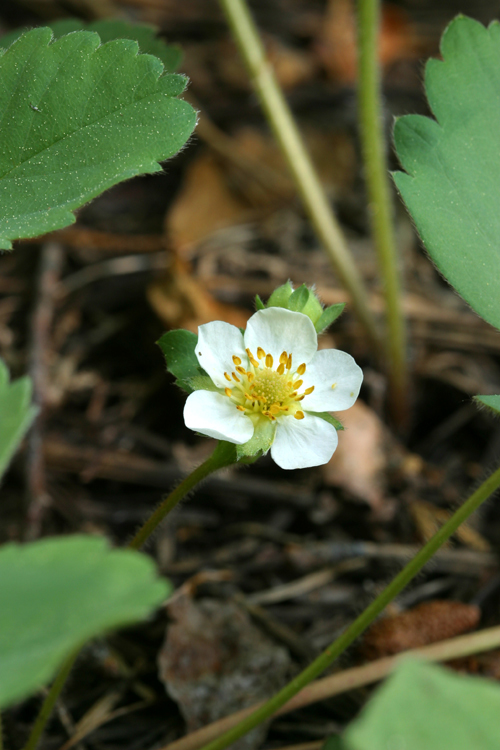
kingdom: Plantae
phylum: Tracheophyta
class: Magnoliopsida
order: Rosales
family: Rosaceae
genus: Fragaria
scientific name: Fragaria virginiana
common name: Thickleaved wild strawberry
